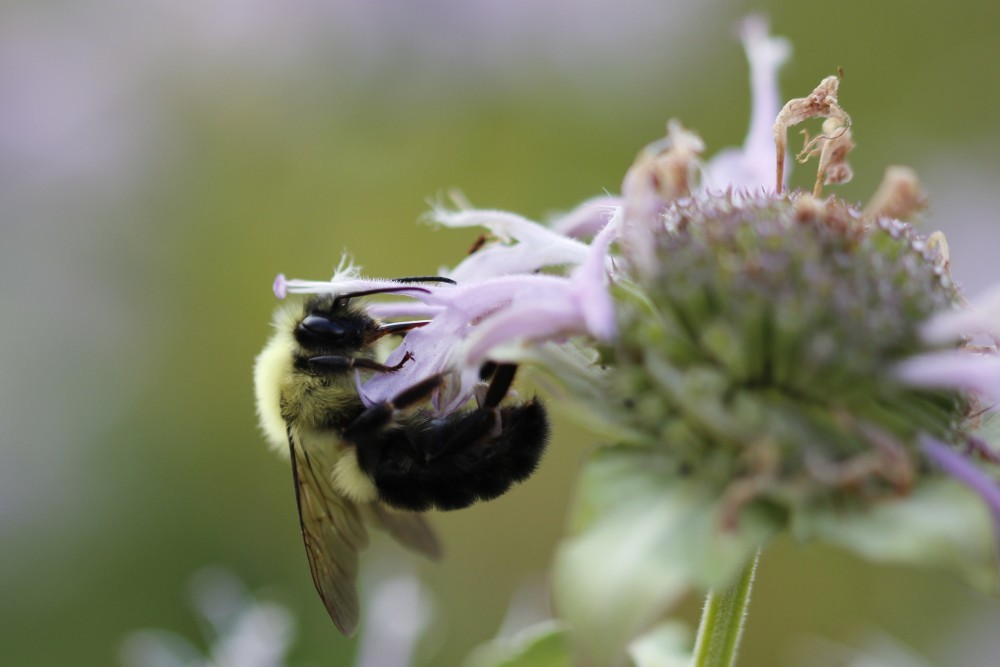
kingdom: Animalia
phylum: Arthropoda
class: Insecta
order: Hymenoptera
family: Apidae
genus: Bombus
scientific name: Bombus impatiens
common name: Common eastern bumble bee
